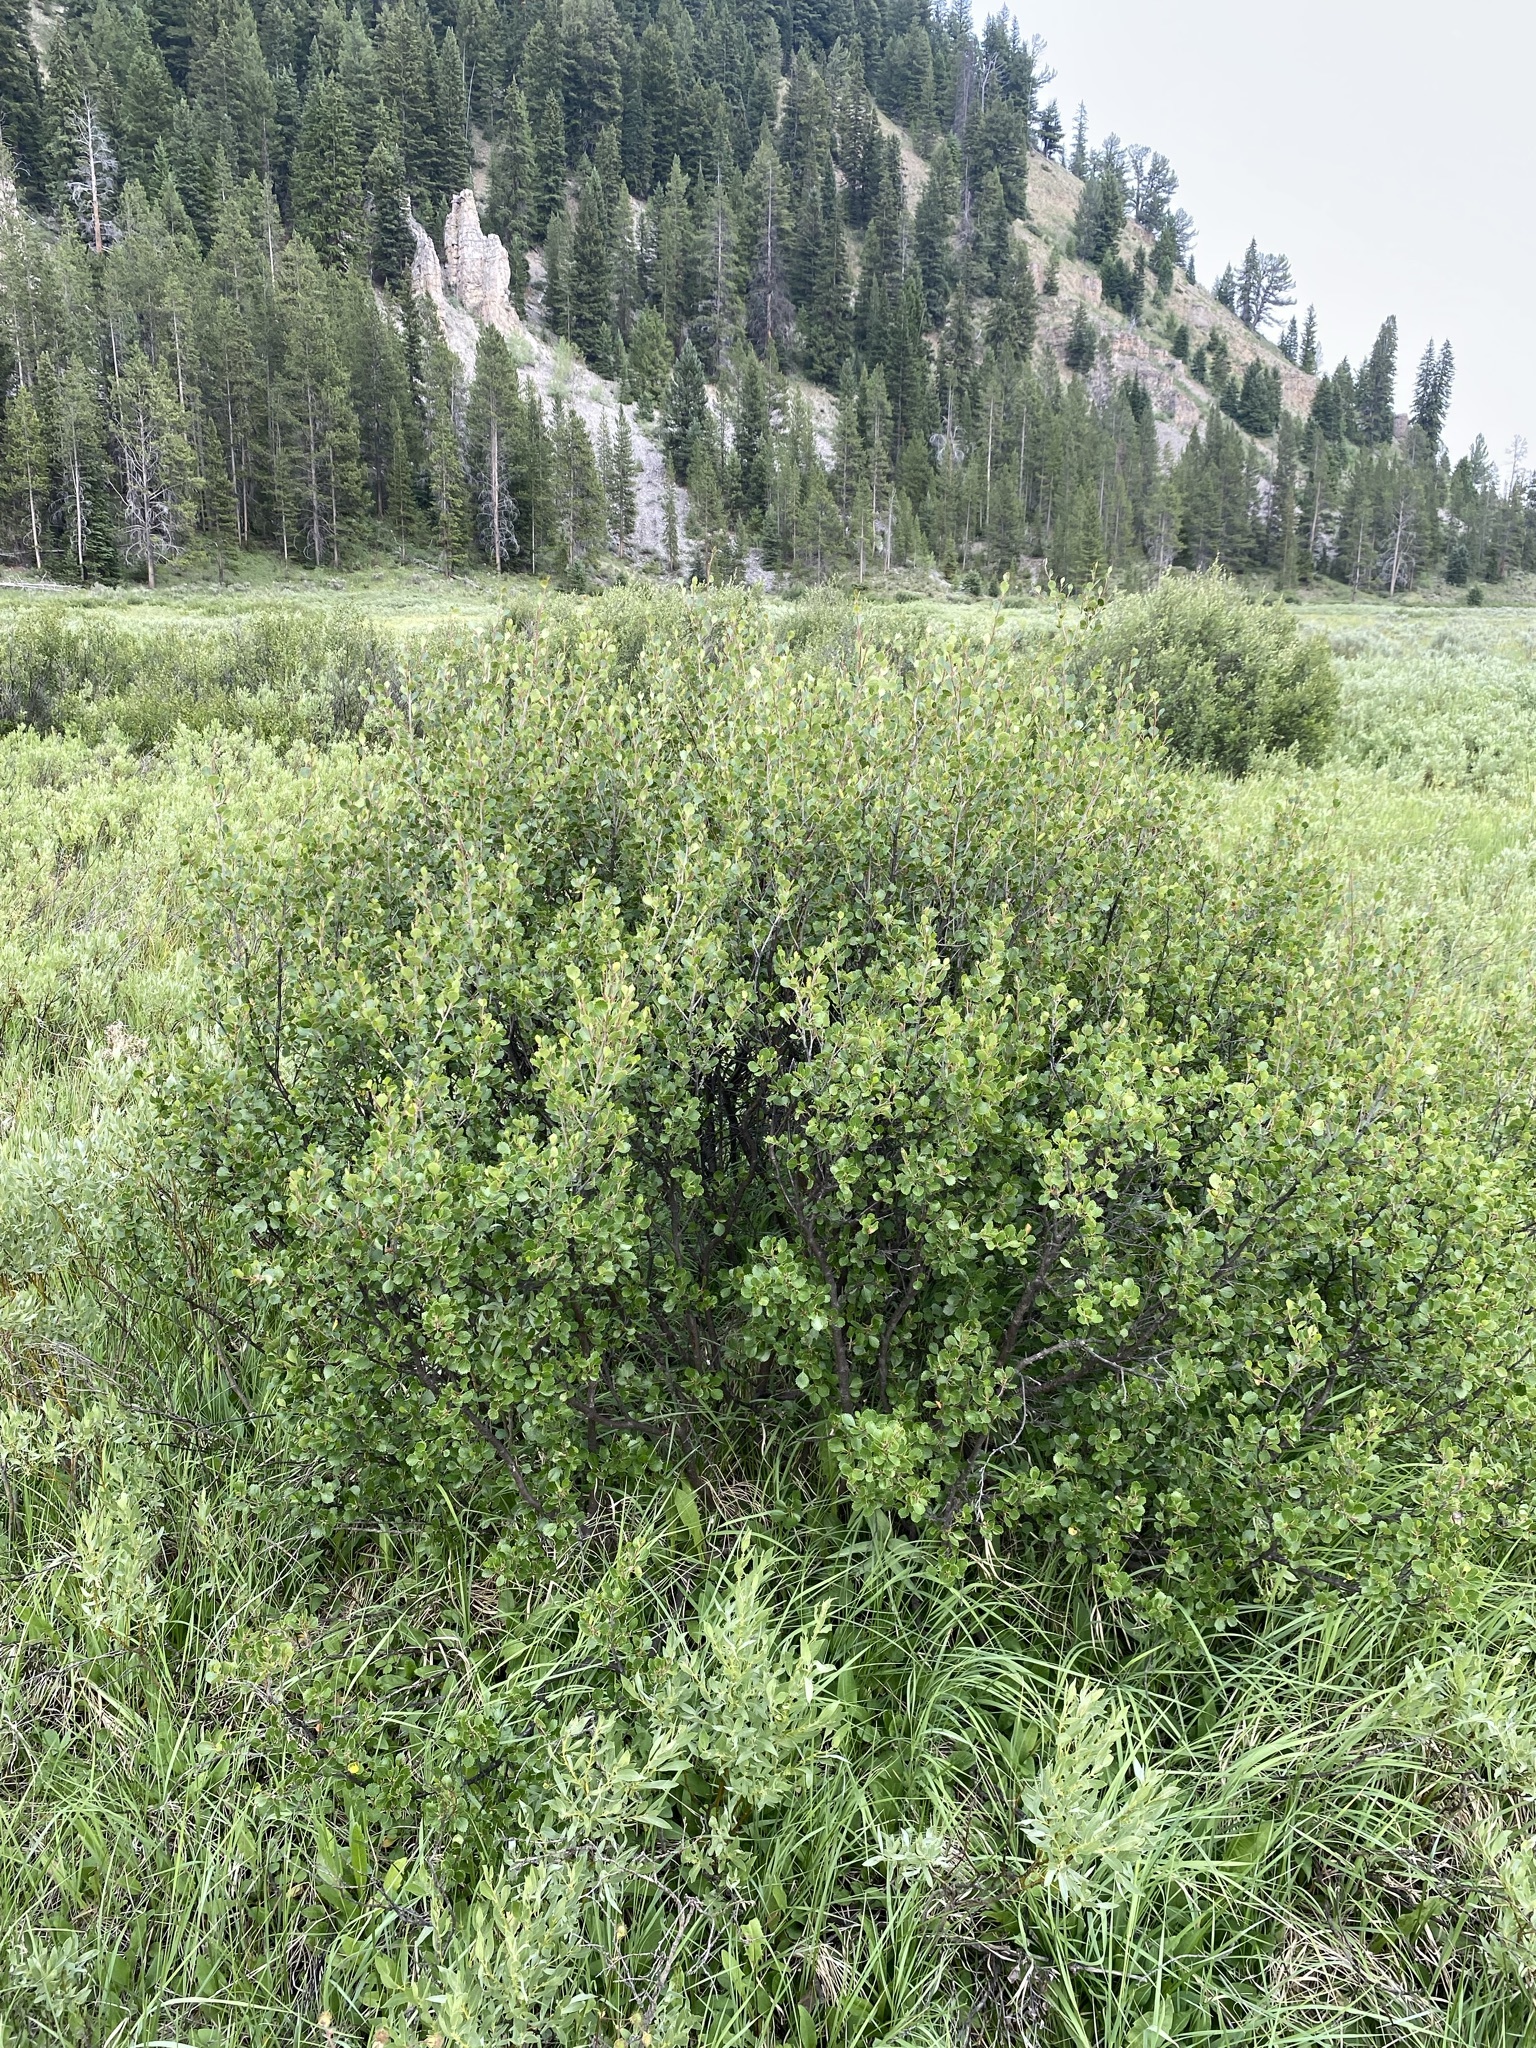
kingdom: Plantae
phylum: Tracheophyta
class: Magnoliopsida
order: Fagales
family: Betulaceae
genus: Betula
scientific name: Betula glandulosa
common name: Dwarf birch
